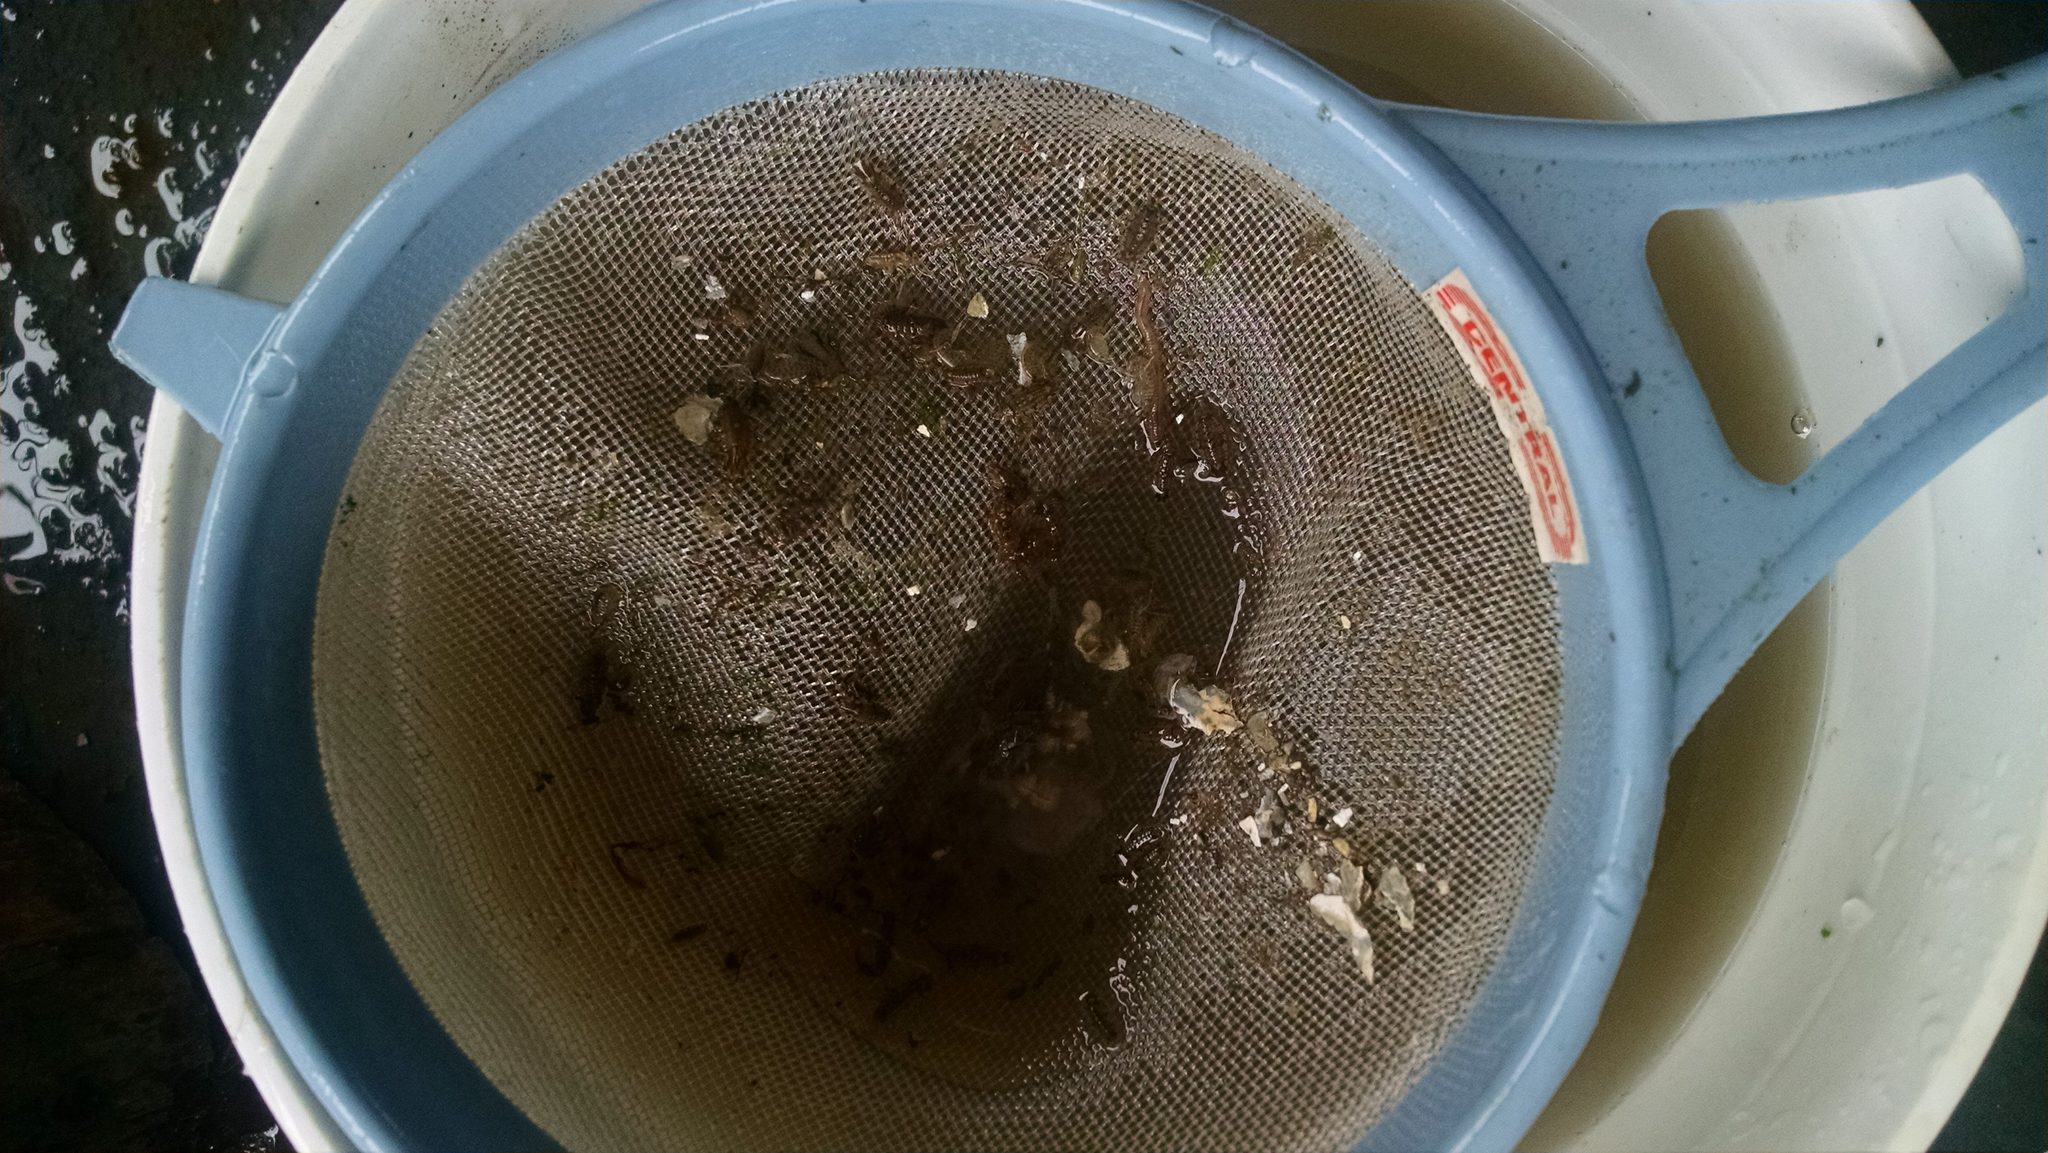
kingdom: Animalia
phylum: Arthropoda
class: Malacostraca
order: Isopoda
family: Idoteidae
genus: Synidotea
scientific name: Synidotea laticauda
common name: Isopod
